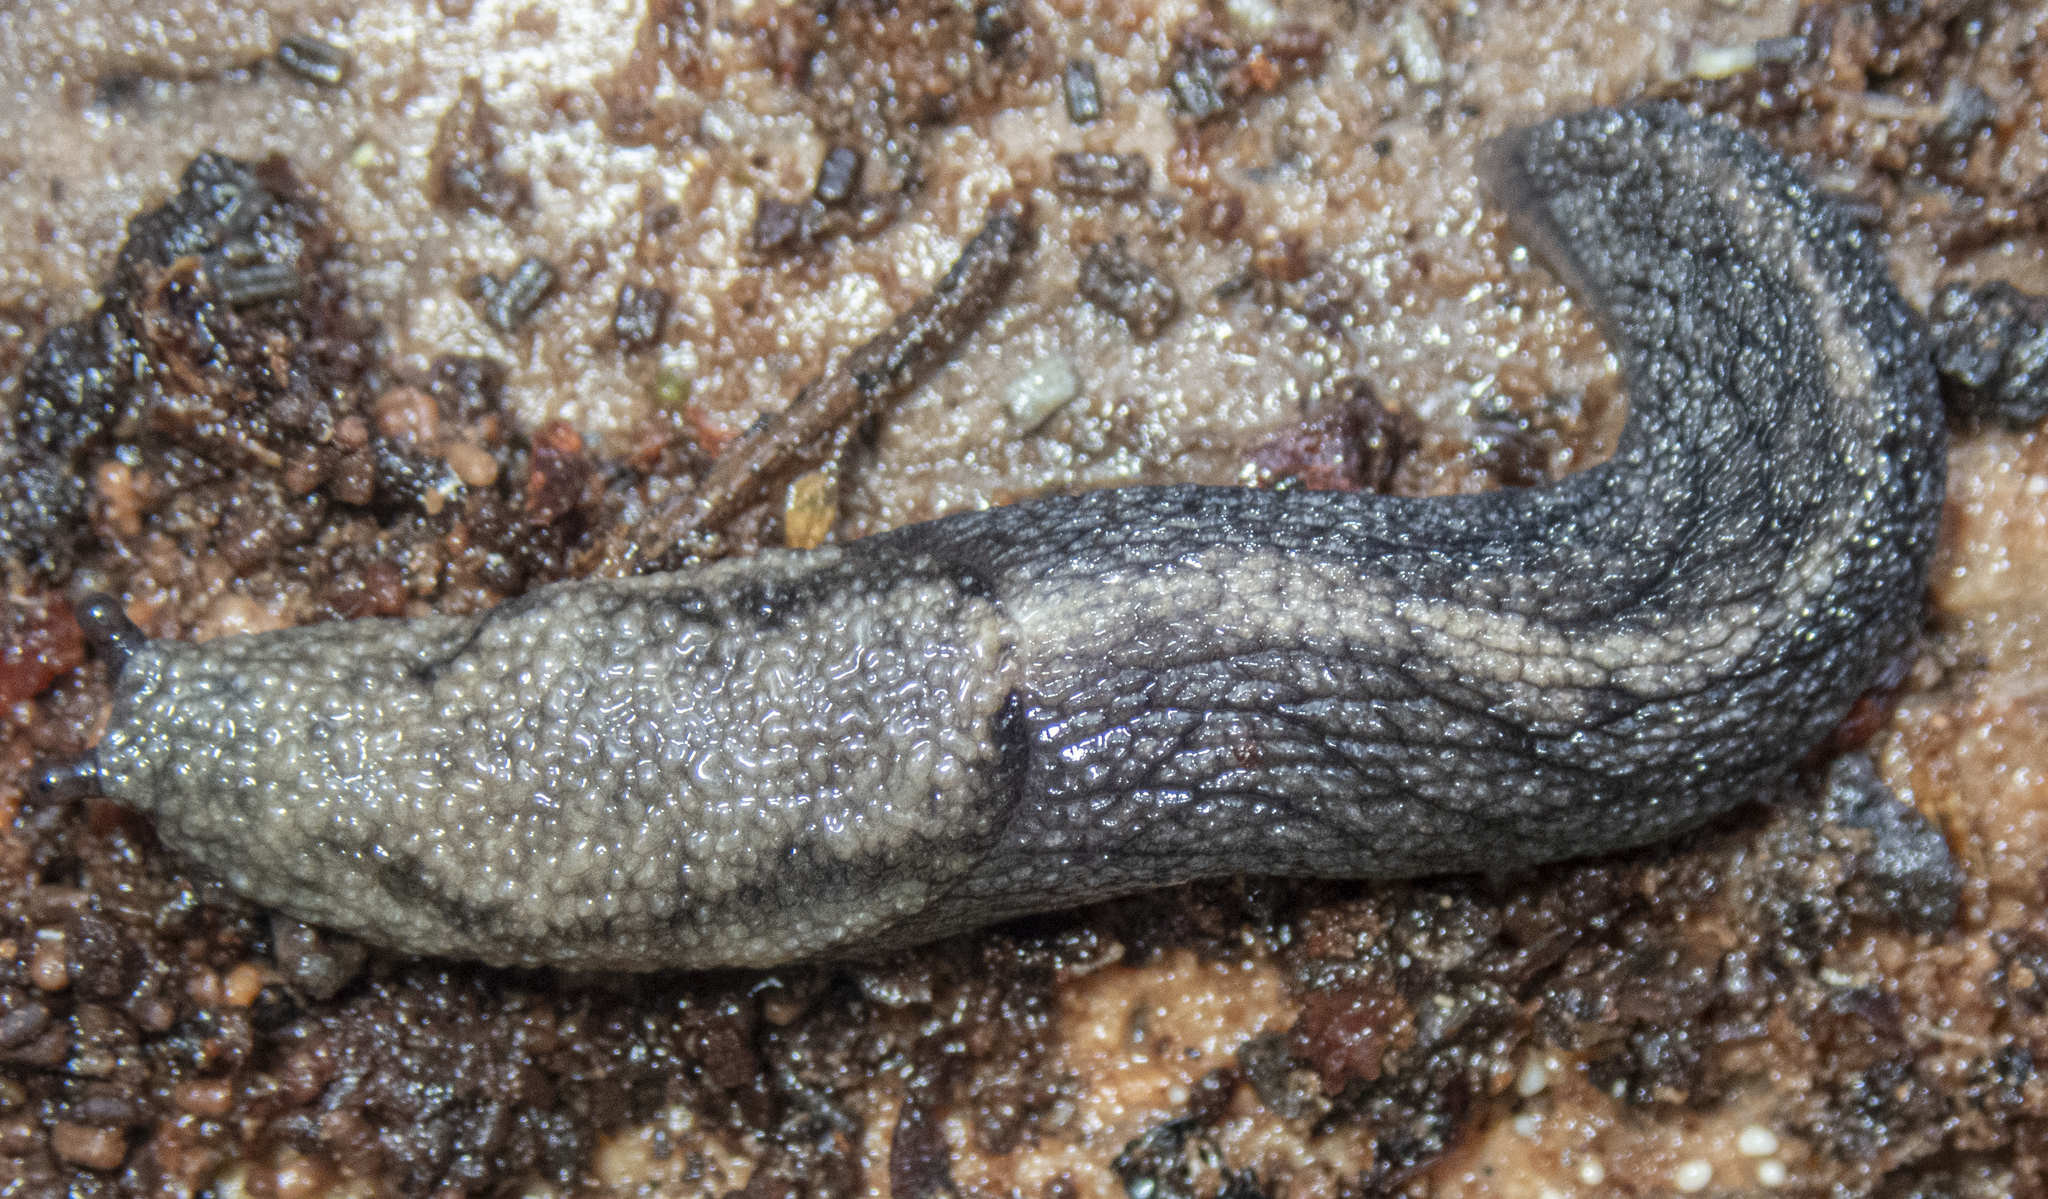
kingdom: Animalia
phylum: Mollusca
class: Gastropoda
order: Stylommatophora
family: Ariolimacidae
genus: Prophysaon
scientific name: Prophysaon andersonii
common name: Reticulate taildropper
